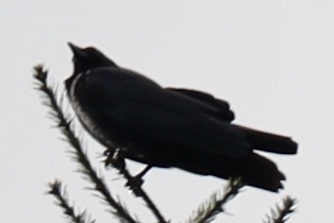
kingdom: Animalia
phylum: Chordata
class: Aves
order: Passeriformes
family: Corvidae
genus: Corvus
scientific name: Corvus brachyrhynchos
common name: American crow
